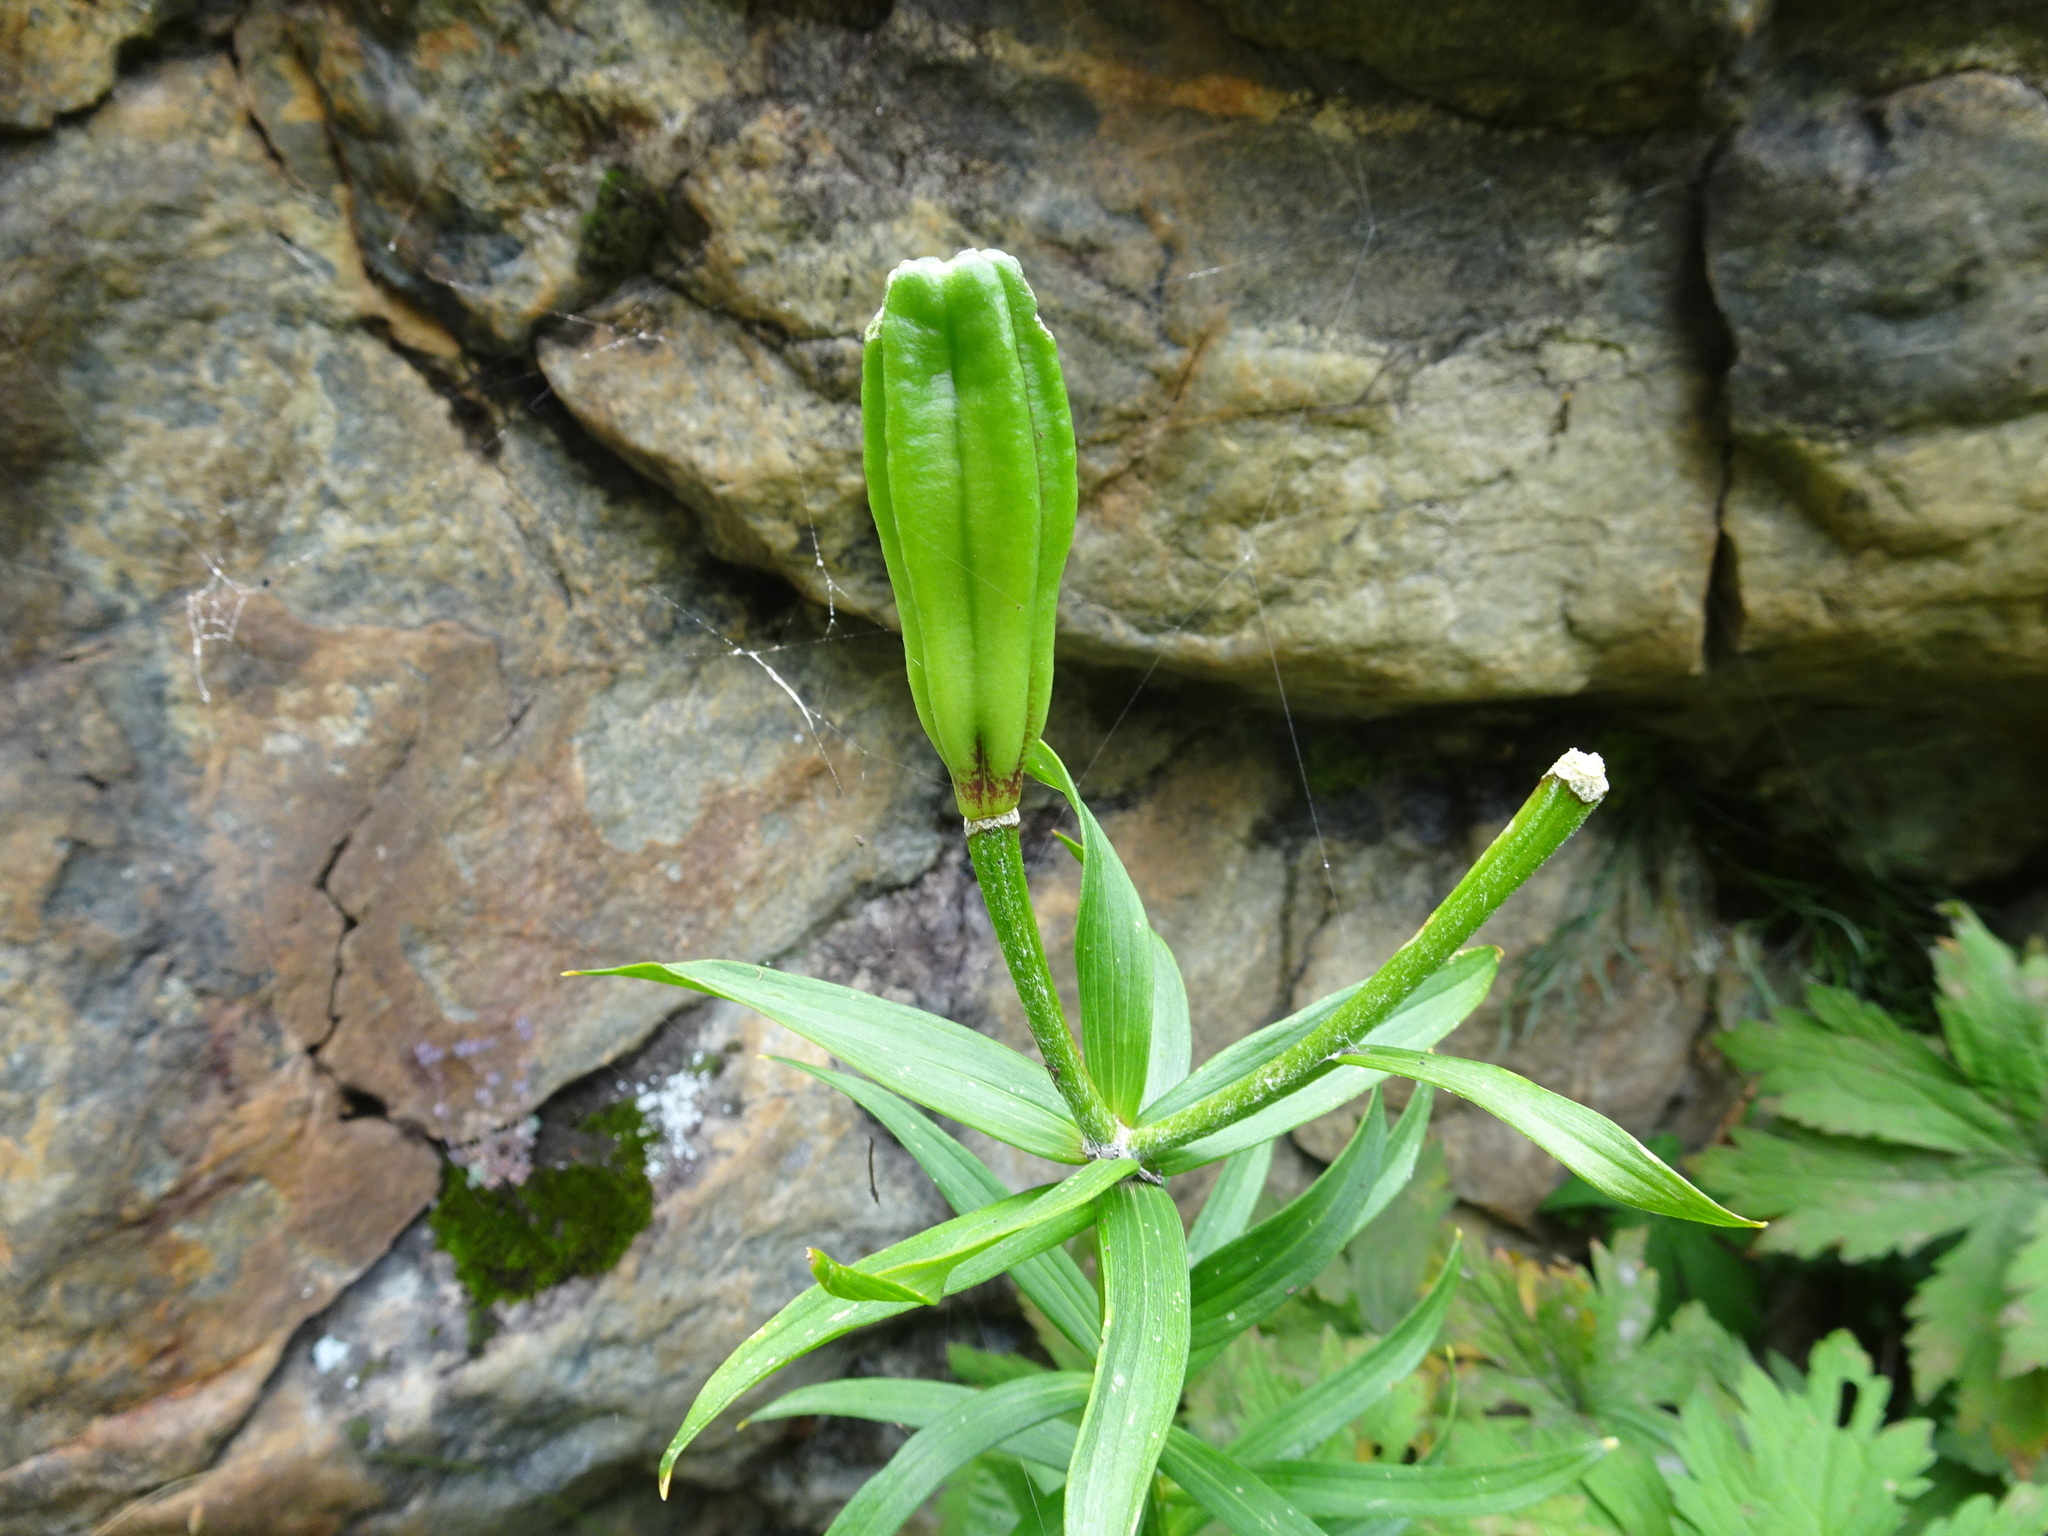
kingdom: Plantae
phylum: Tracheophyta
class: Liliopsida
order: Liliales
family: Liliaceae
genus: Lilium
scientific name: Lilium bulbiferum
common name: Orange lily
